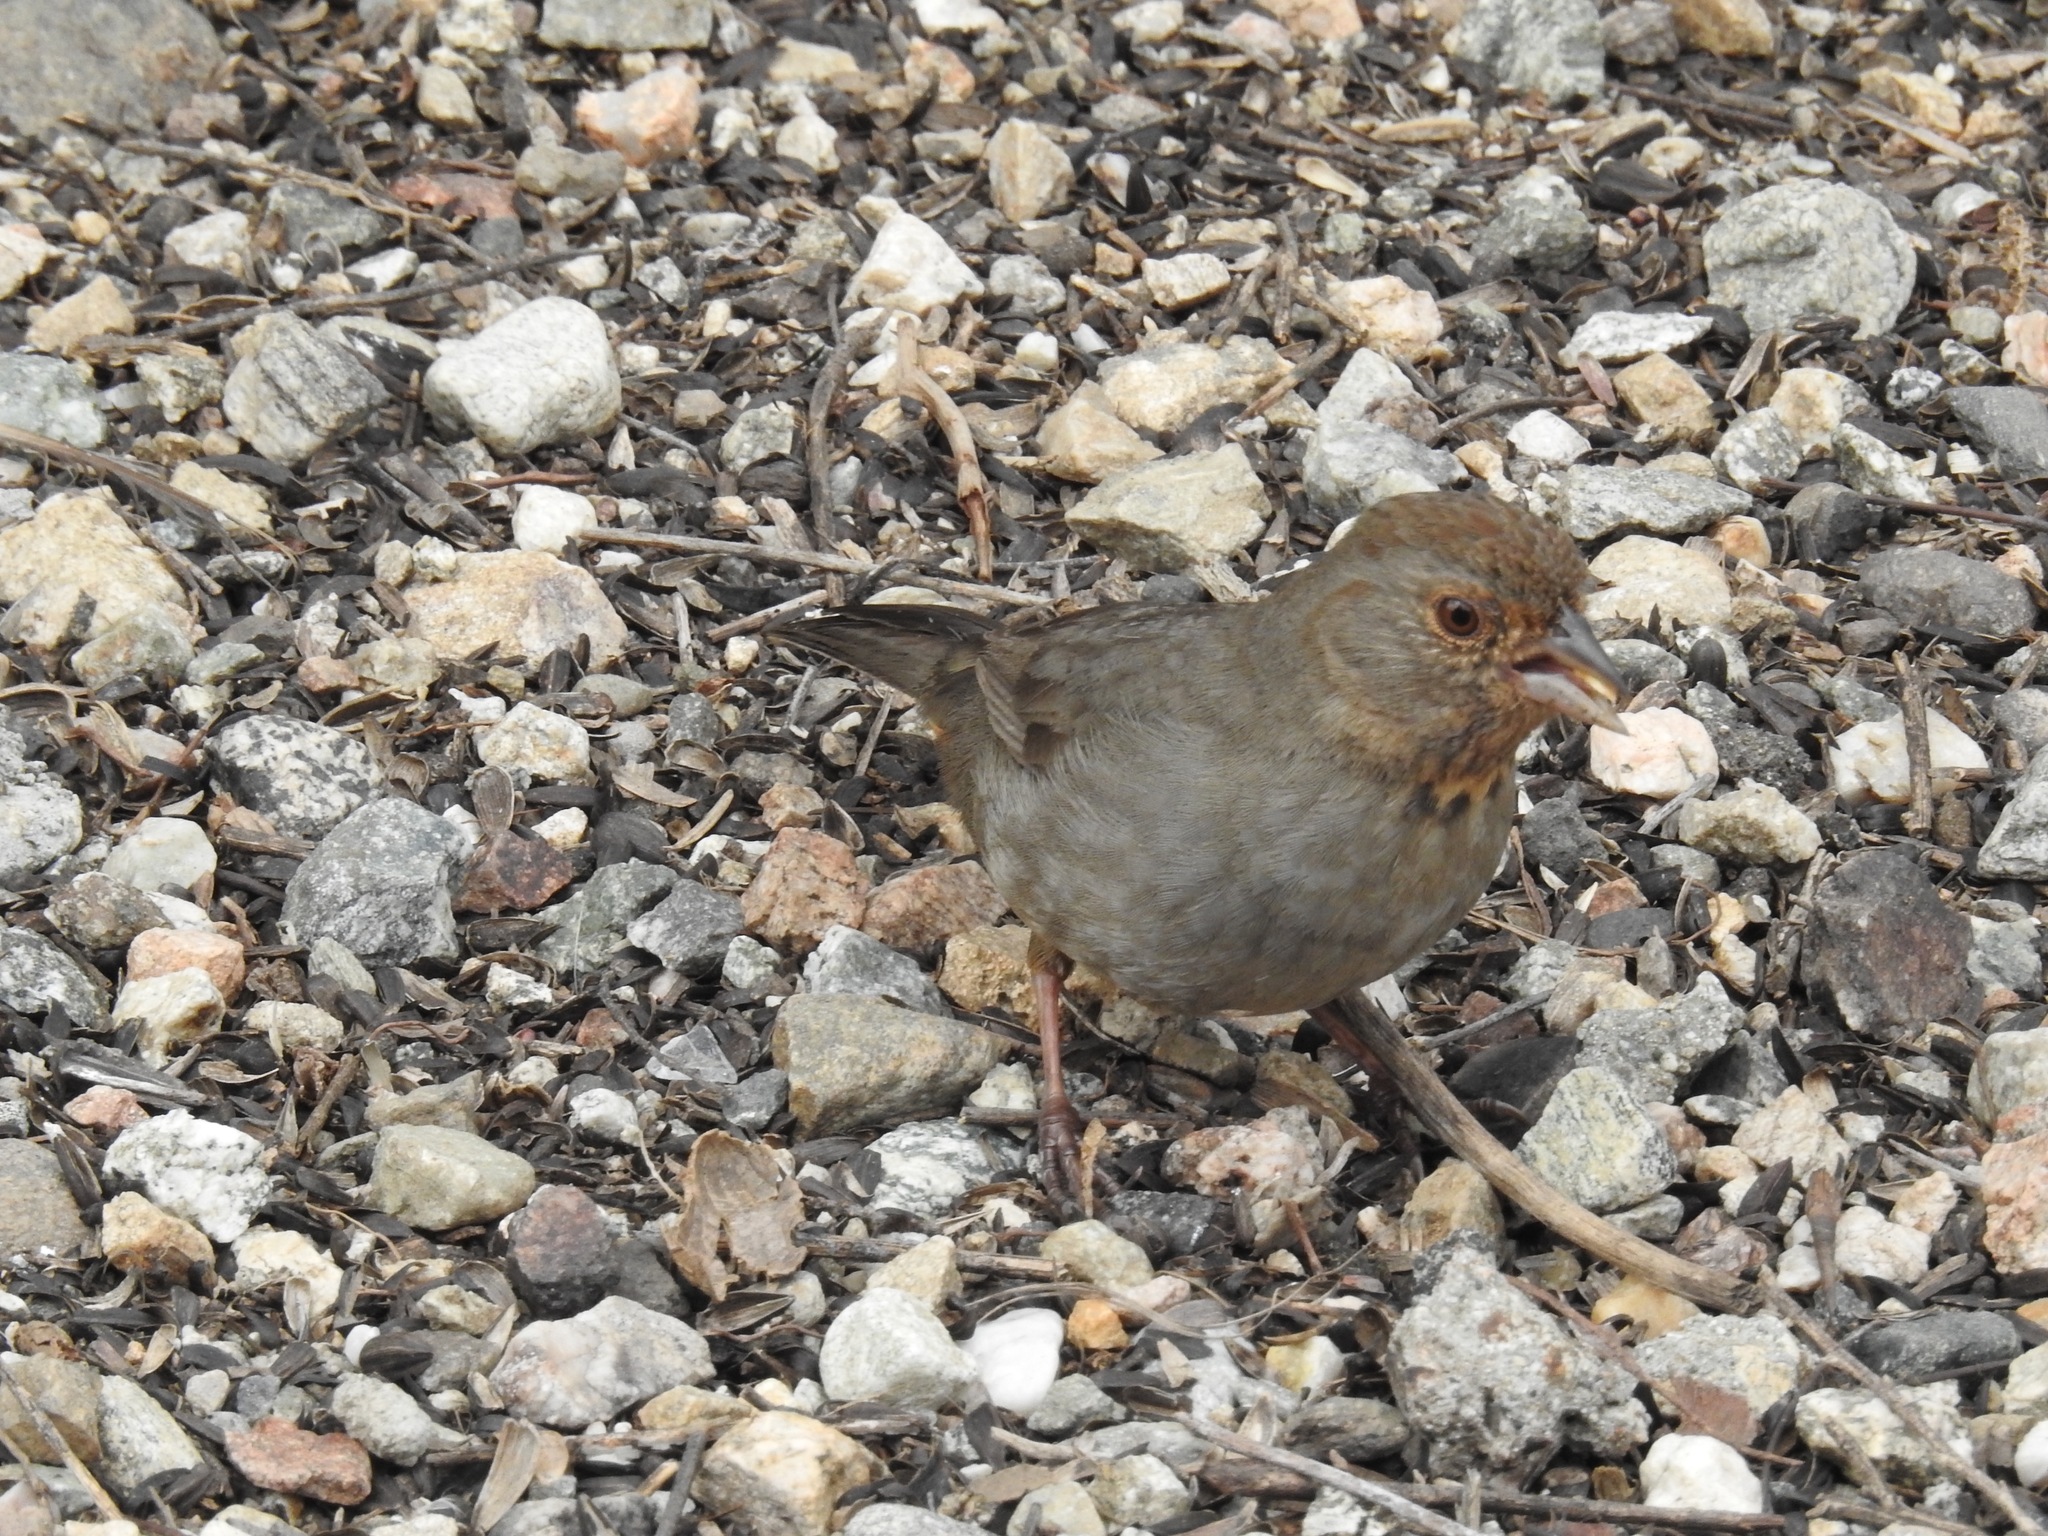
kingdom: Animalia
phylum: Chordata
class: Aves
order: Passeriformes
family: Passerellidae
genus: Melozone
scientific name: Melozone crissalis
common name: California towhee
